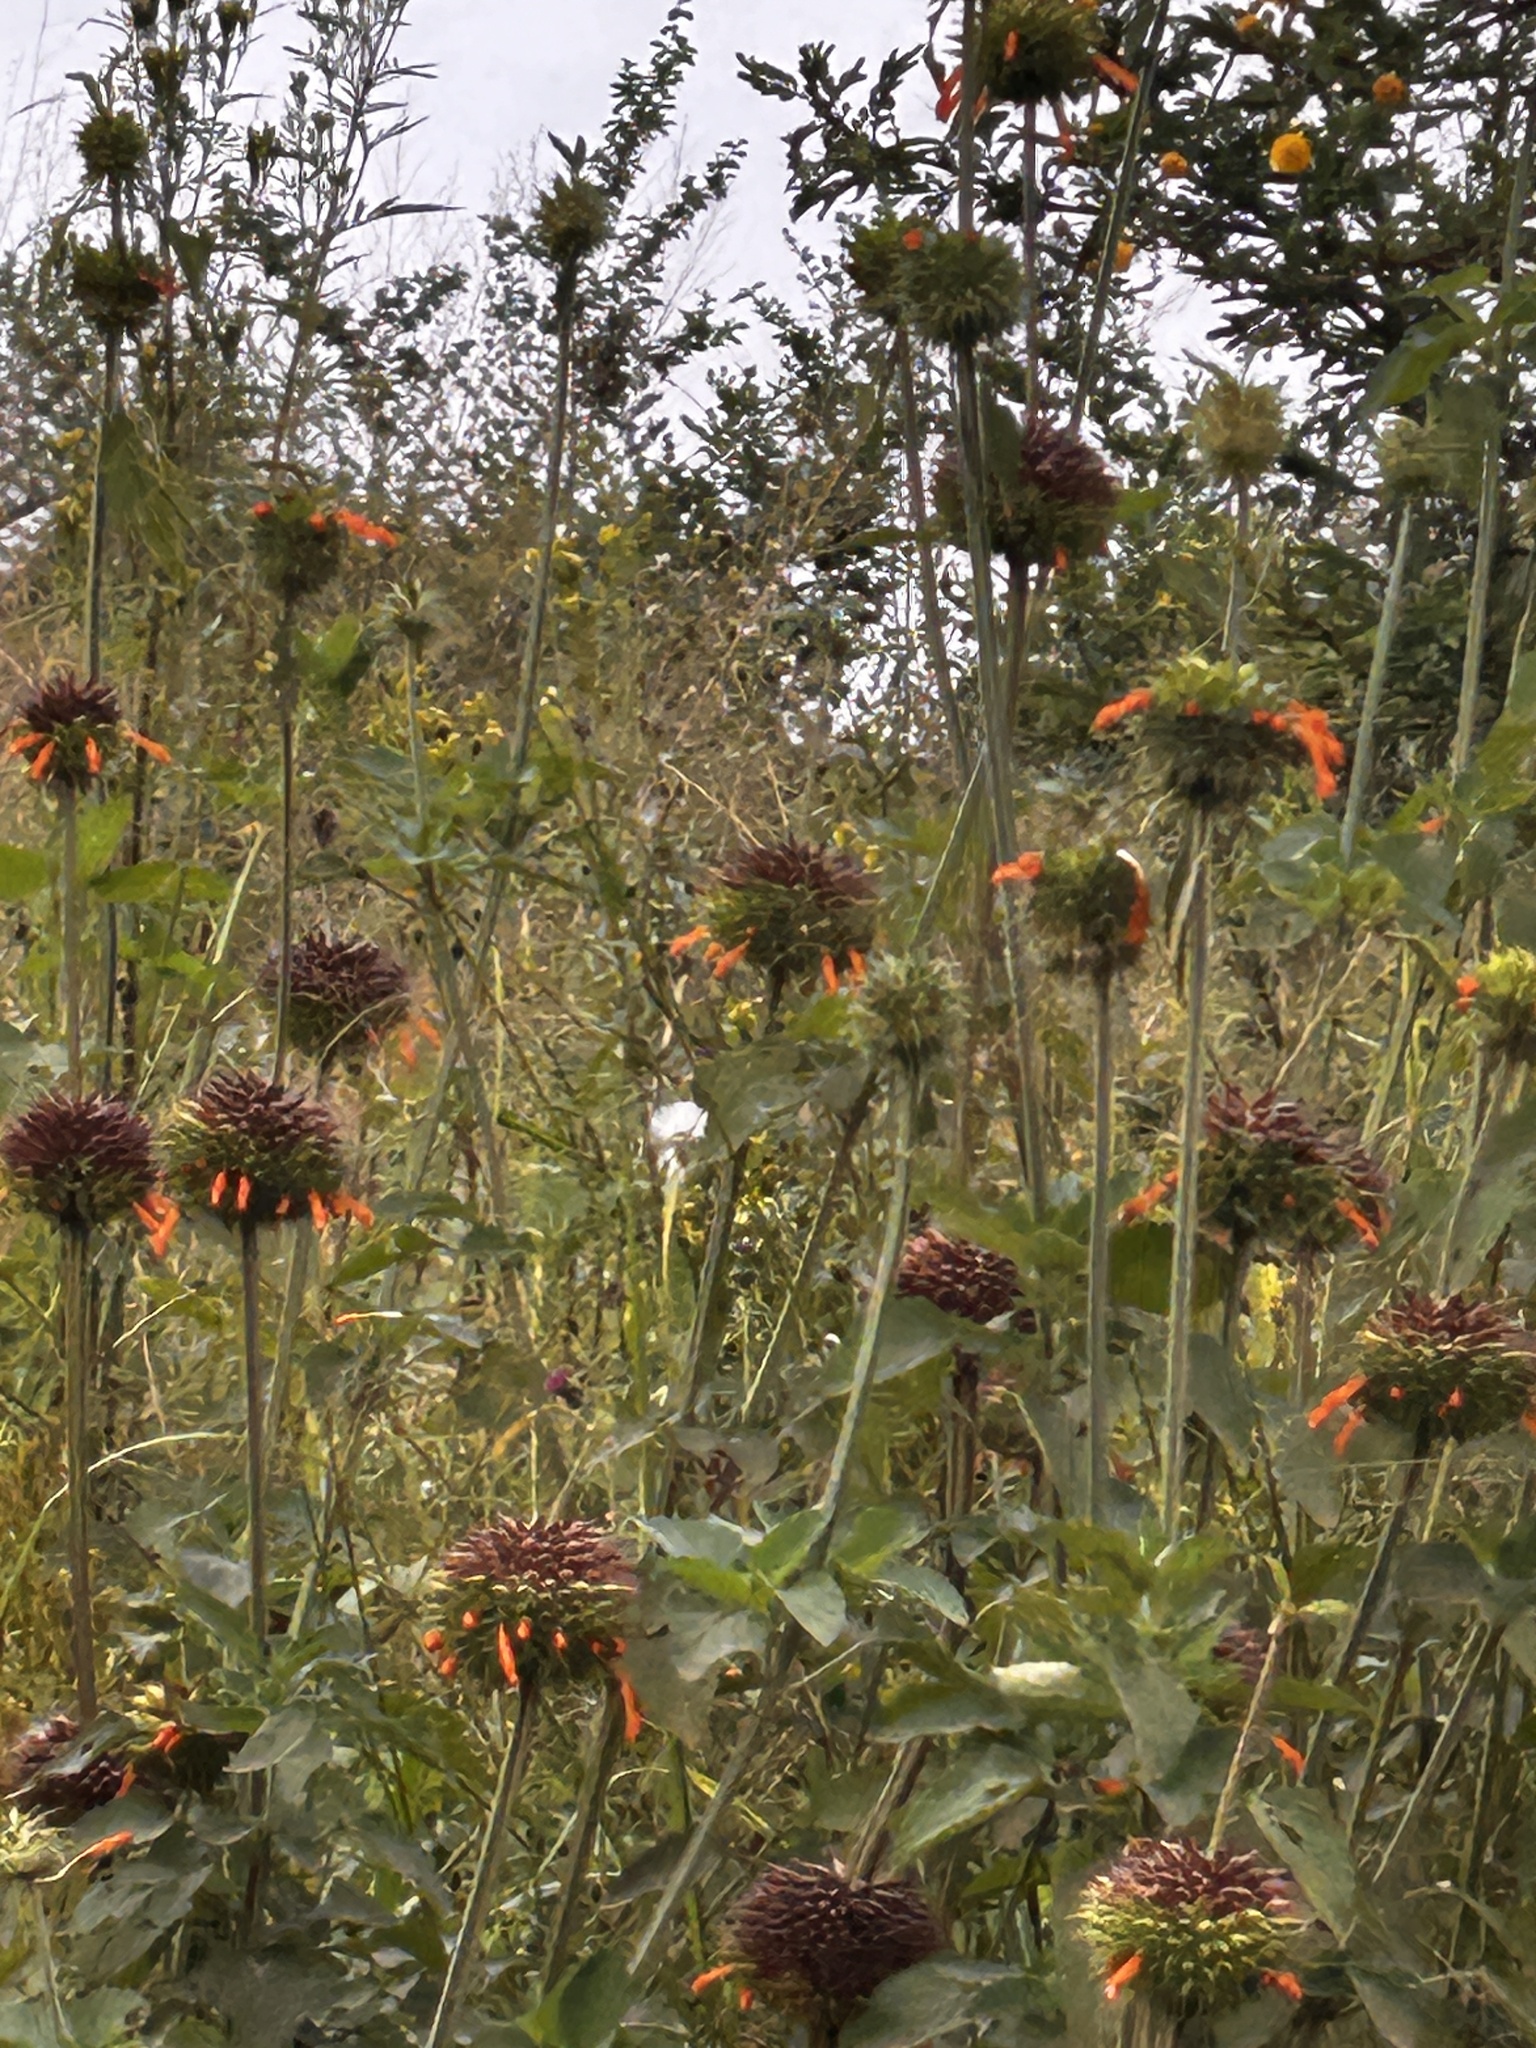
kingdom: Plantae
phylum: Tracheophyta
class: Magnoliopsida
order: Lamiales
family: Lamiaceae
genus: Leonotis
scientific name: Leonotis nepetifolia
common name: Christmas candlestick
